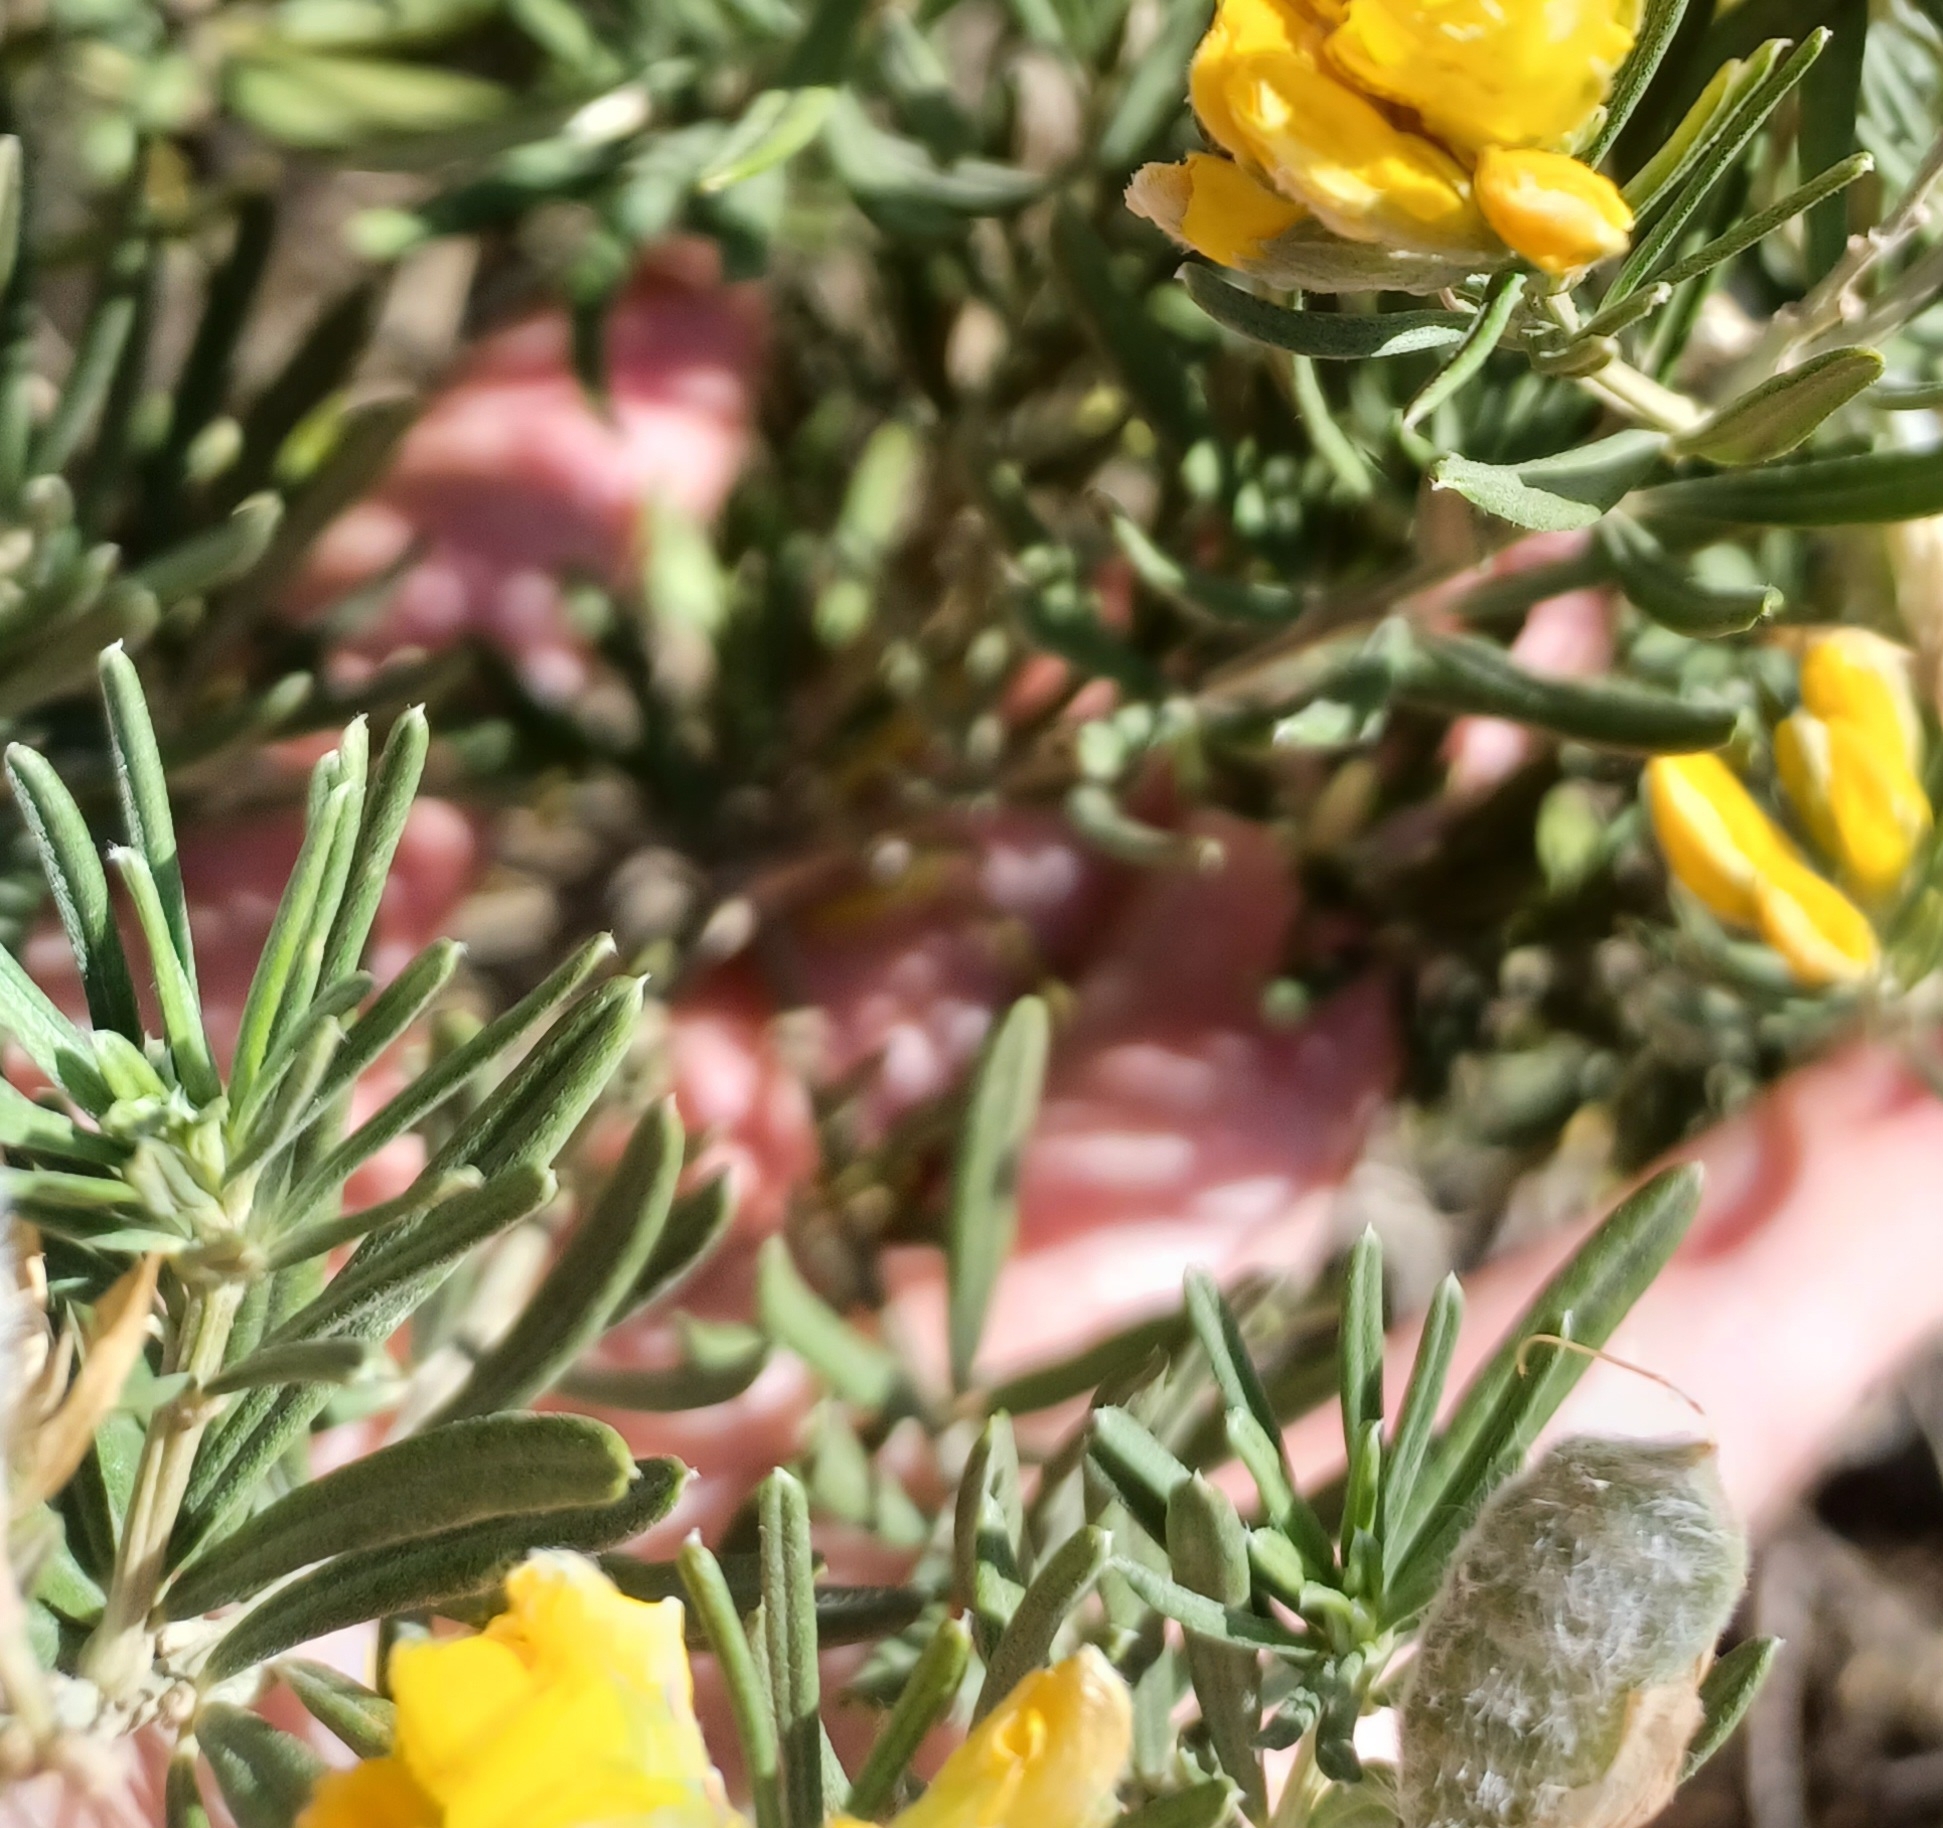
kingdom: Plantae
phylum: Tracheophyta
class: Magnoliopsida
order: Fabales
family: Fabaceae
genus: Genista
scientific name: Genista linifolia
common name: Mediterranean broom
